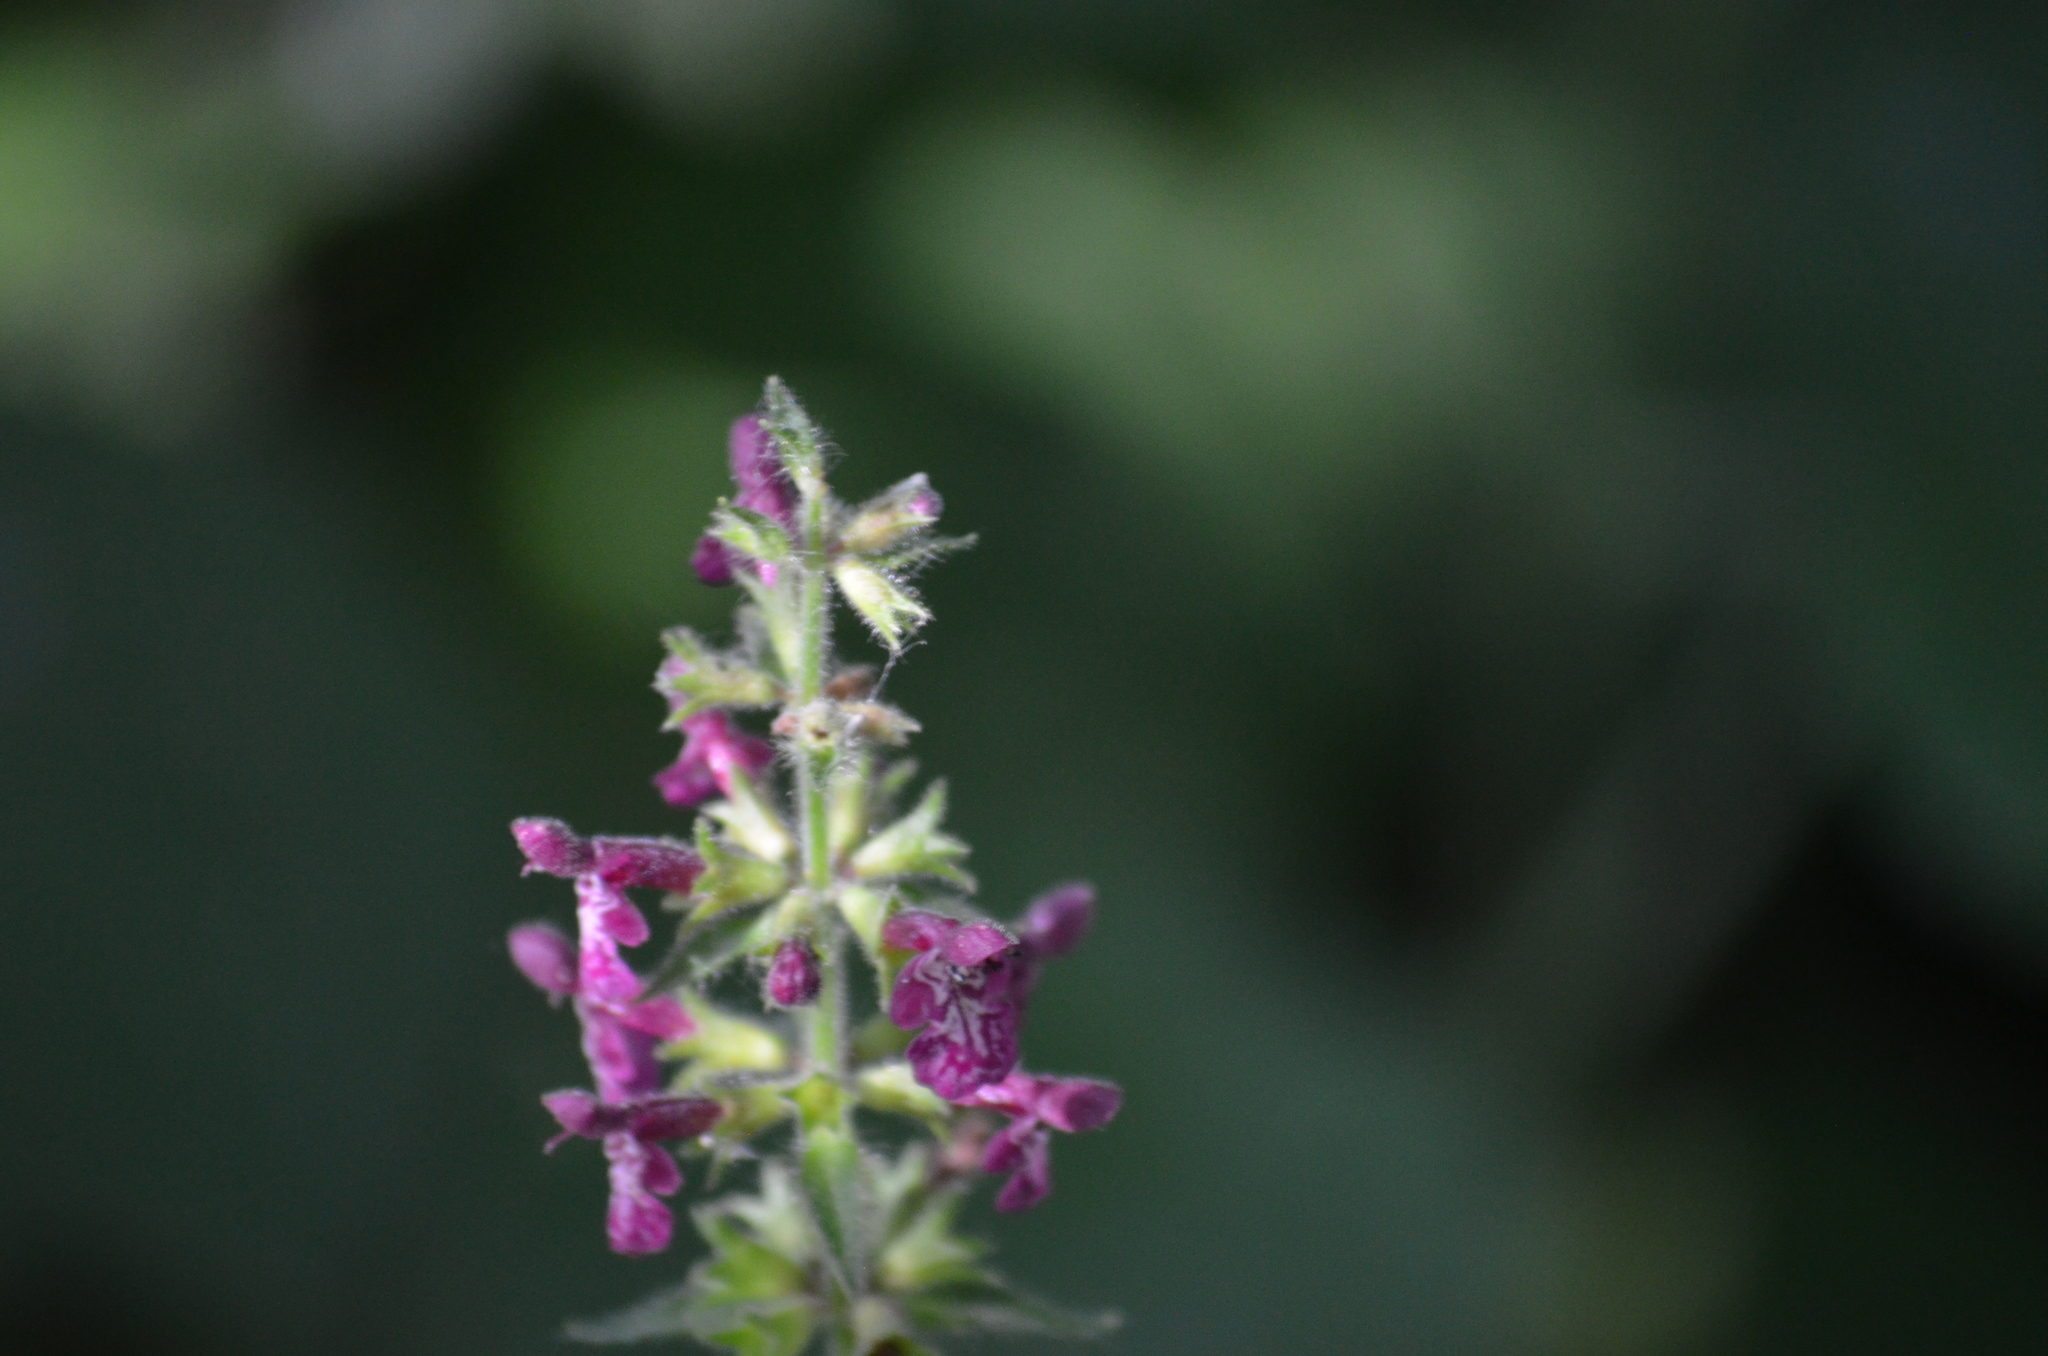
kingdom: Plantae
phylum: Tracheophyta
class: Magnoliopsida
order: Lamiales
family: Lamiaceae
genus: Stachys
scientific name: Stachys sylvatica
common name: Hedge woundwort
